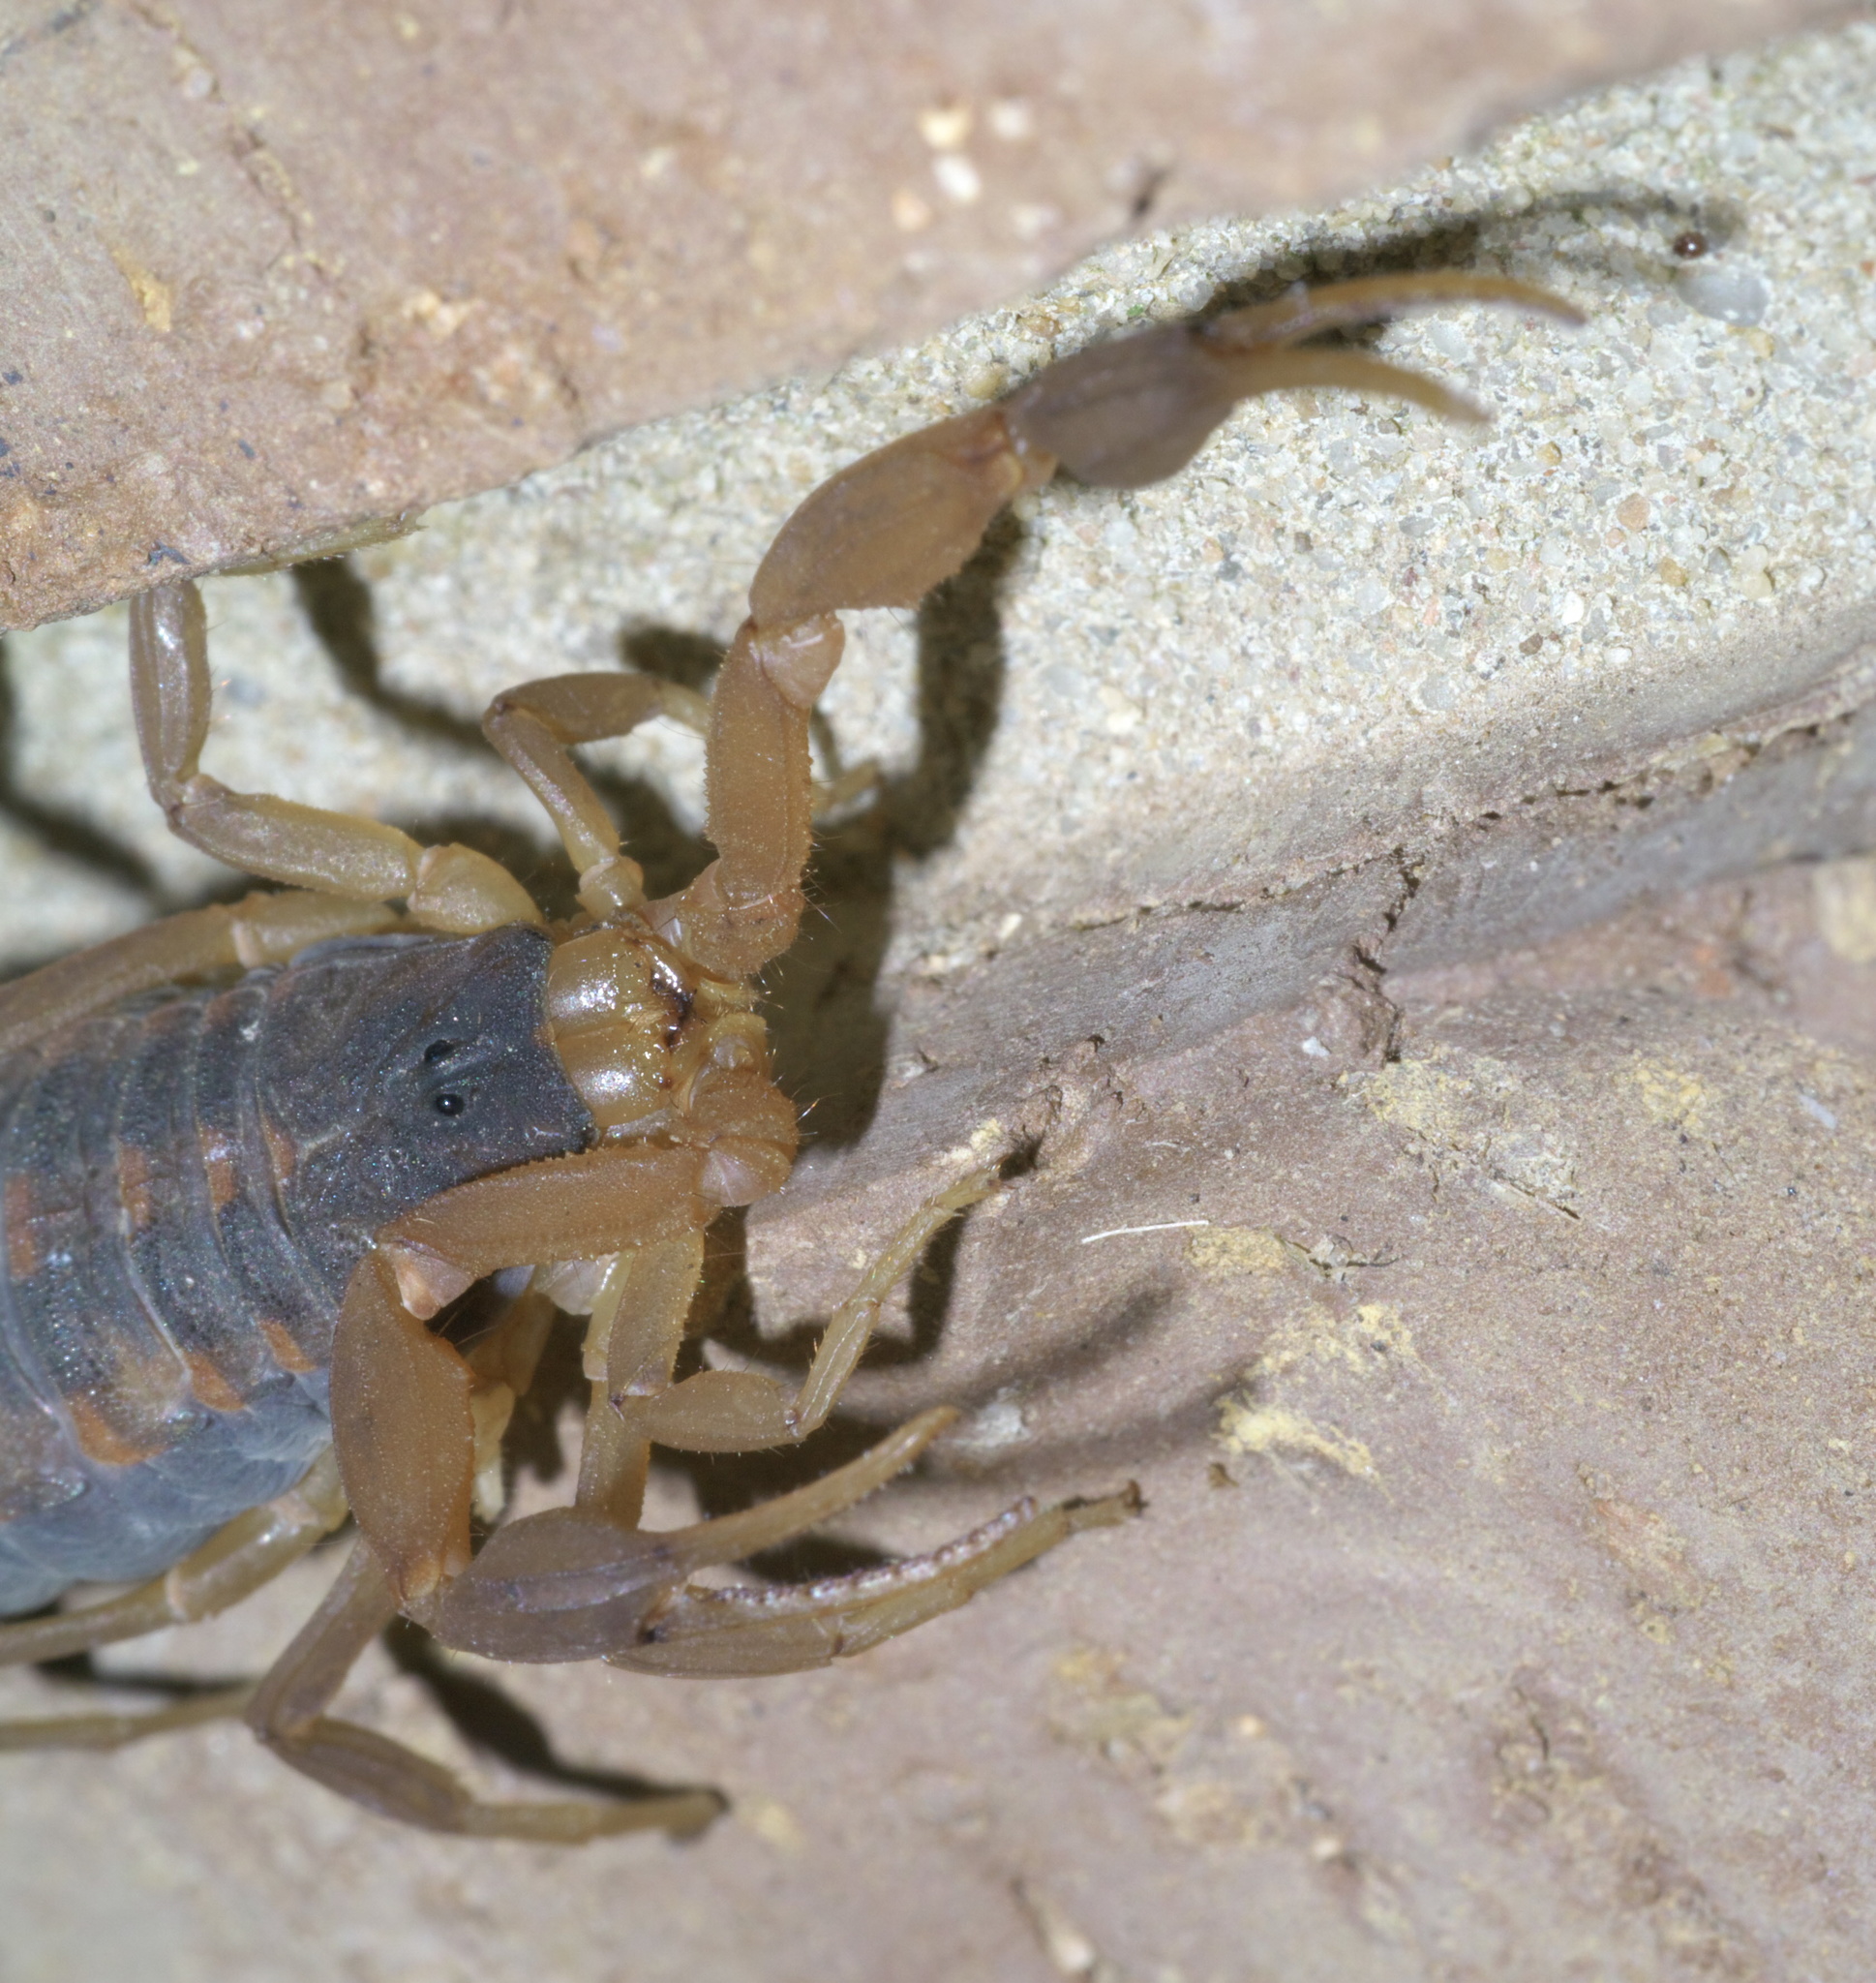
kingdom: Animalia
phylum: Arthropoda
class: Arachnida
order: Scorpiones
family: Buthidae
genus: Centruroides
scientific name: Centruroides vittatus
